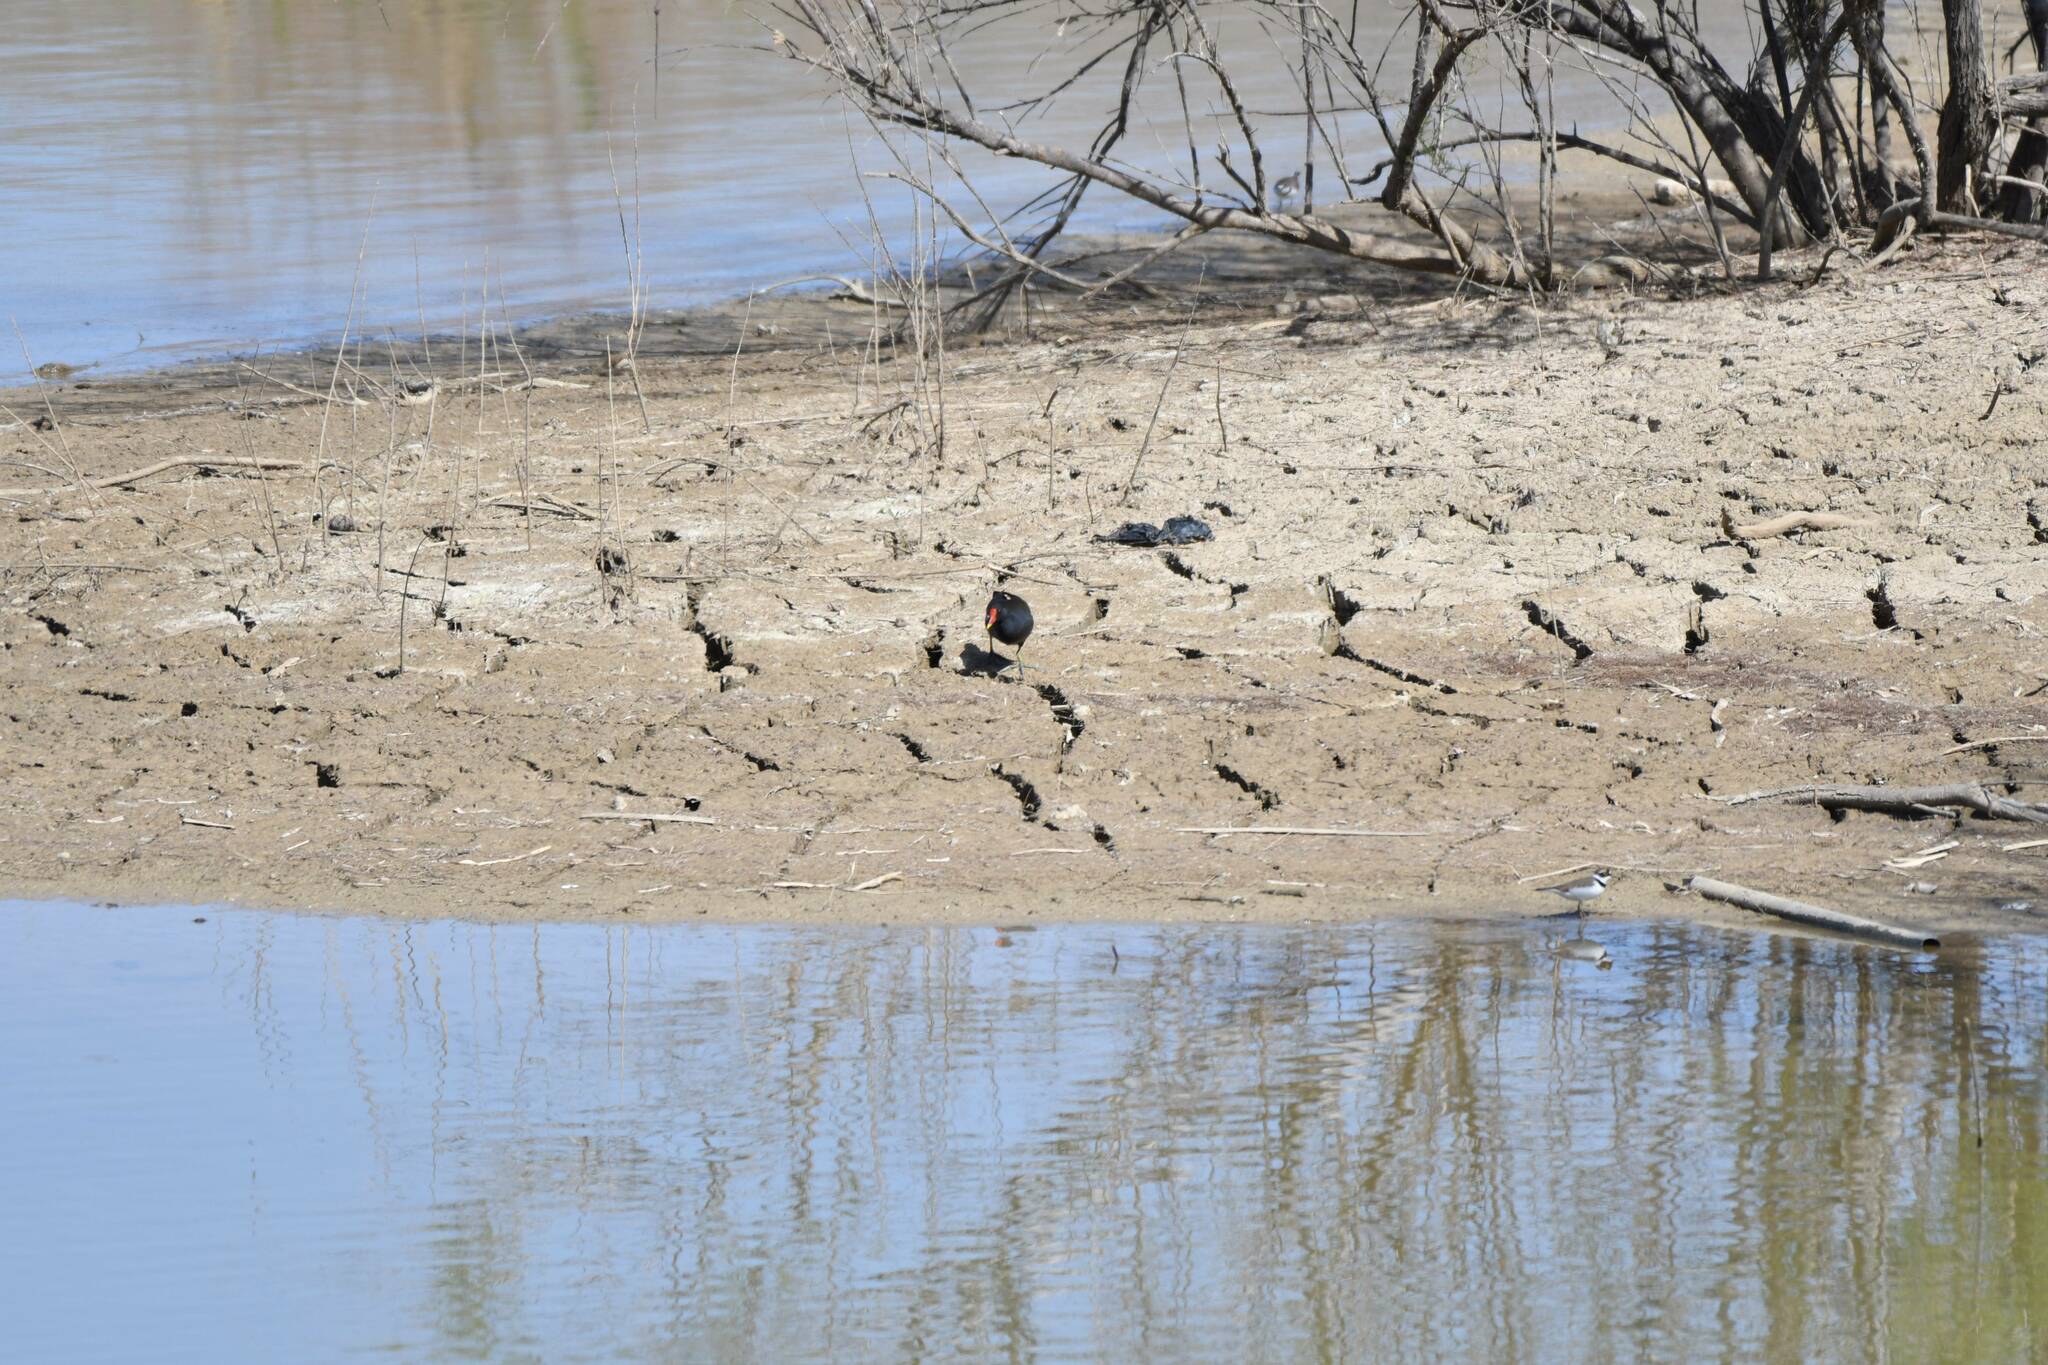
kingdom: Animalia
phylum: Chordata
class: Aves
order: Gruiformes
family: Rallidae
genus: Gallinula
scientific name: Gallinula chloropus
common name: Common moorhen
